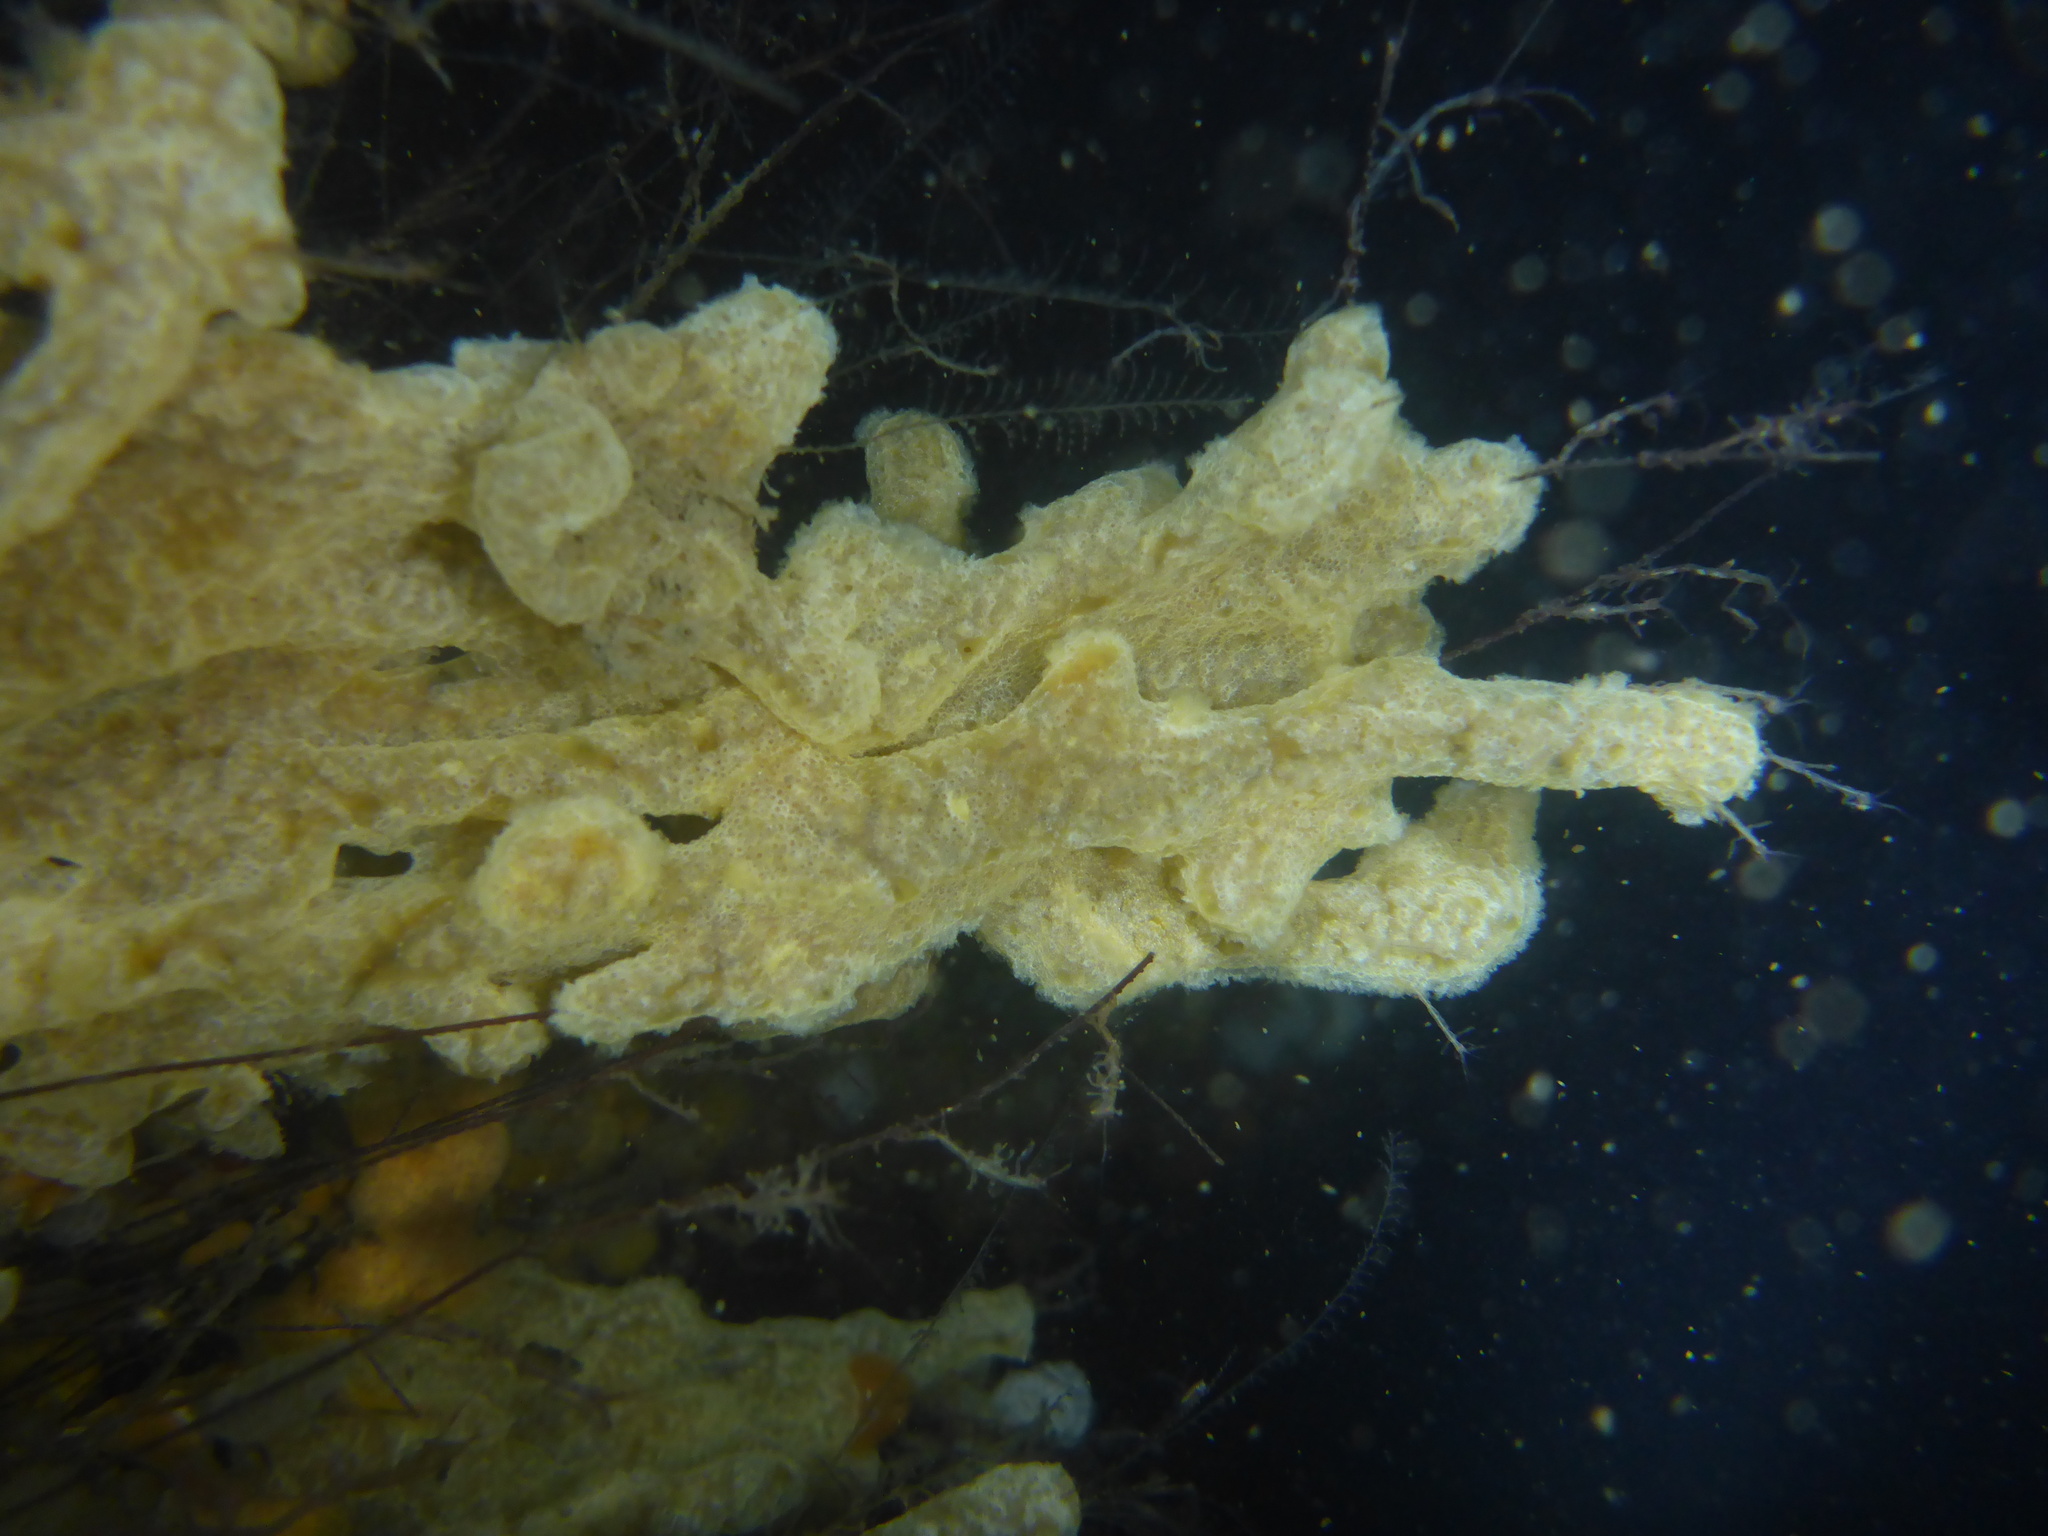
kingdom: Animalia
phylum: Chordata
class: Ascidiacea
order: Aplousobranchia
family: Didemnidae
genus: Didemnum
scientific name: Didemnum vexillum
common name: Compound sea squirt
